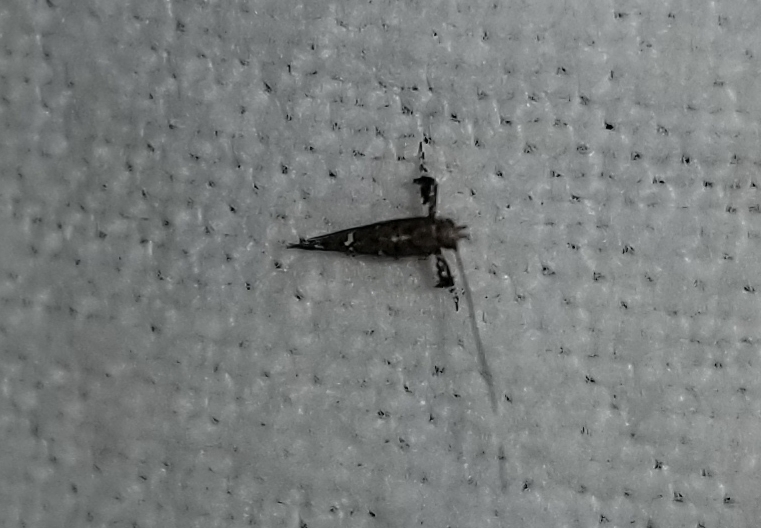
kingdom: Animalia
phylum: Arthropoda
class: Insecta
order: Lepidoptera
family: Gracillariidae
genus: Caloptilia
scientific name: Caloptilia triadicae
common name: Tallow leaf roller
